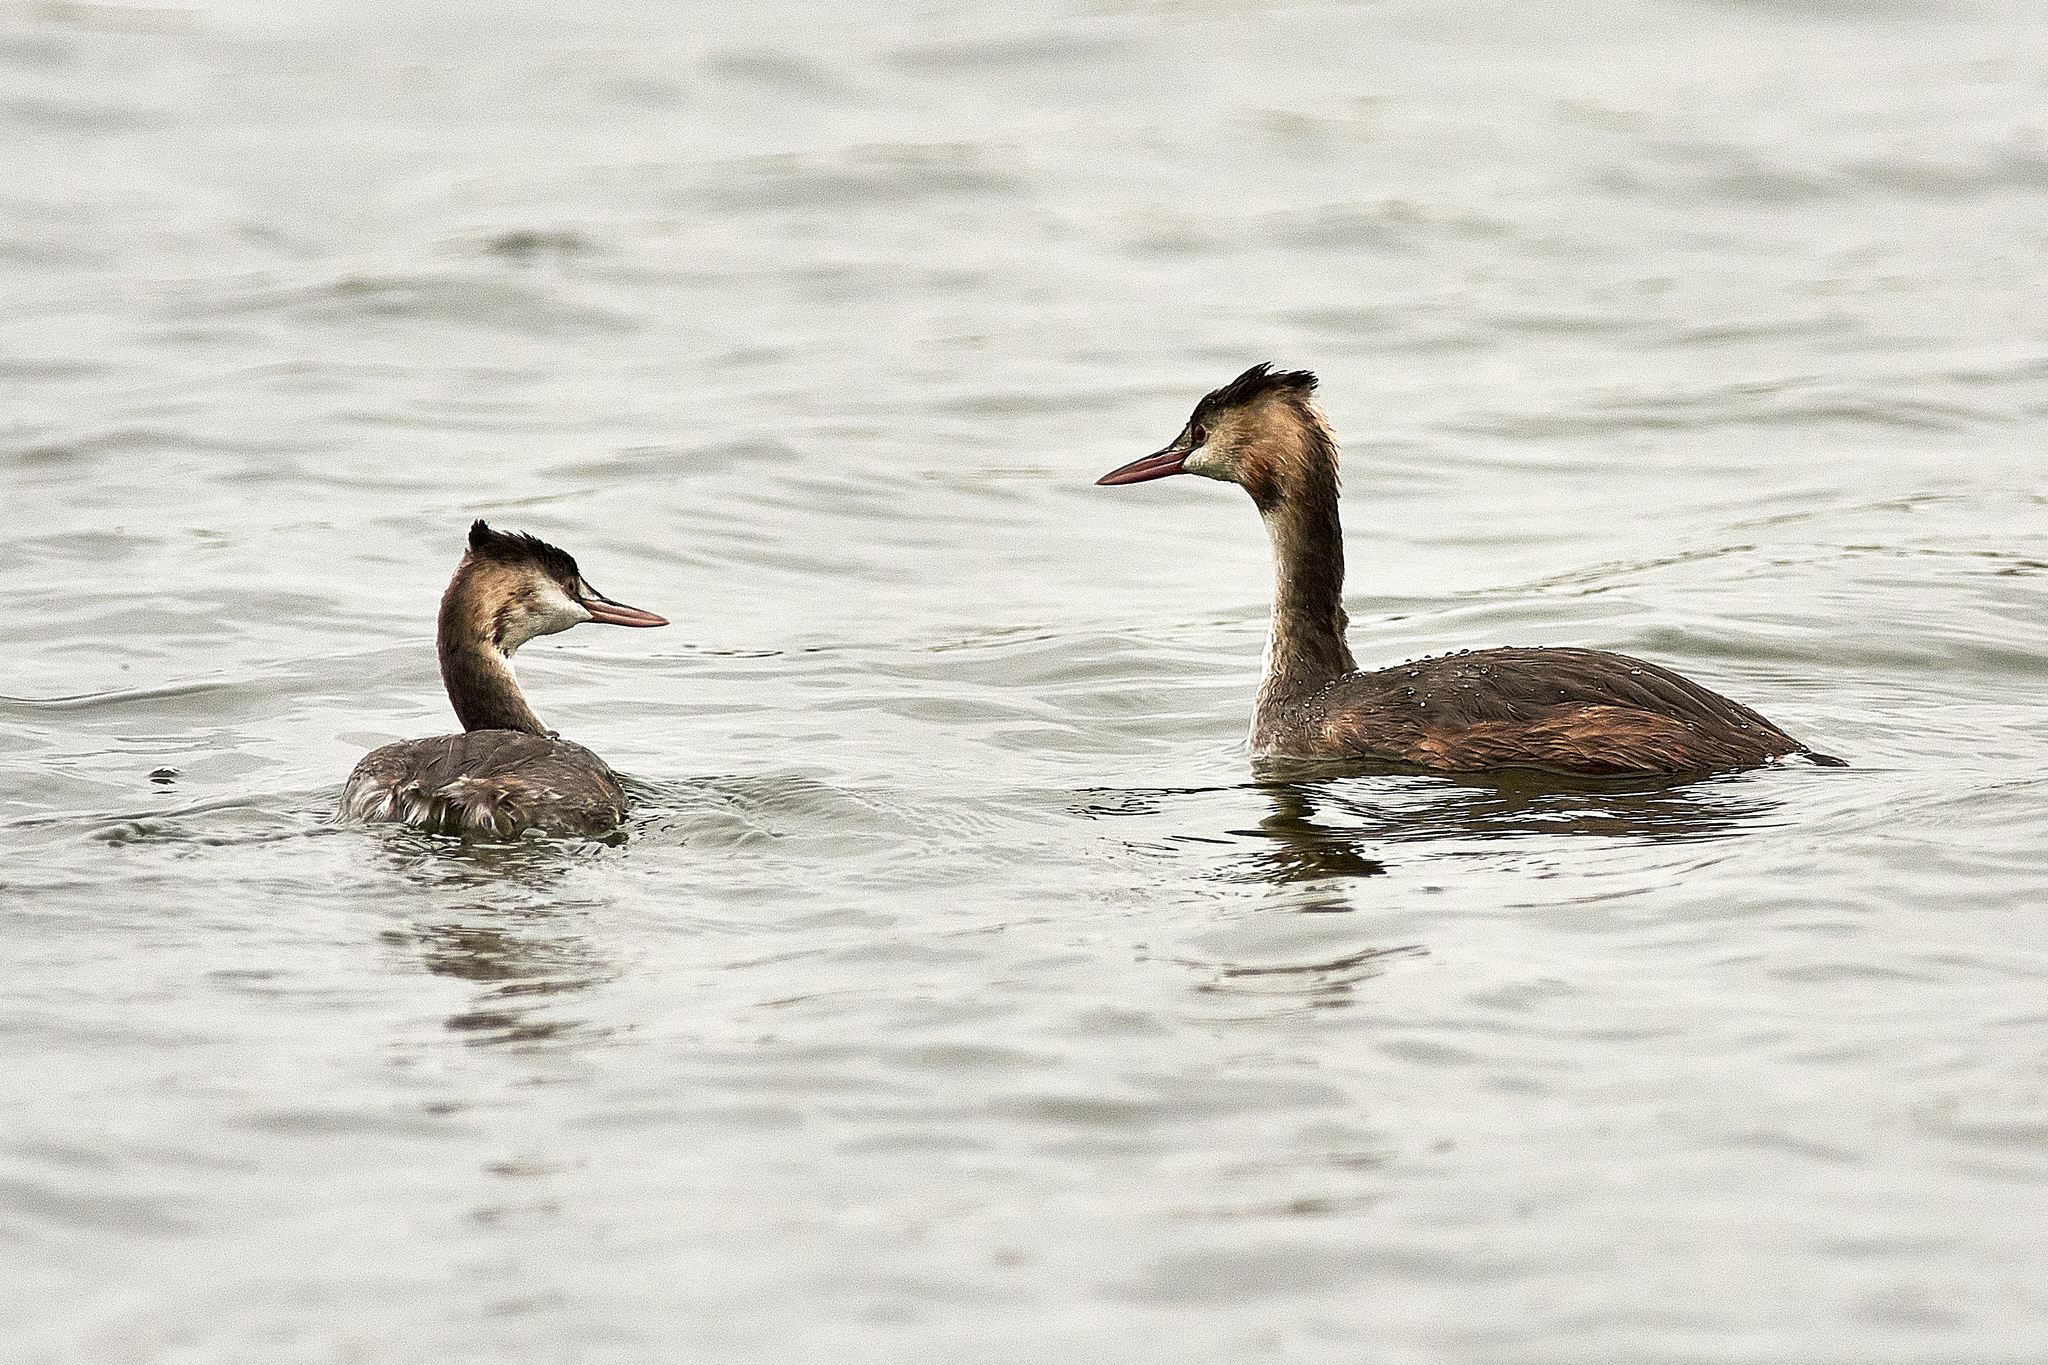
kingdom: Animalia
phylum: Chordata
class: Aves
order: Podicipediformes
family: Podicipedidae
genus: Podiceps
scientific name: Podiceps cristatus
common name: Great crested grebe
